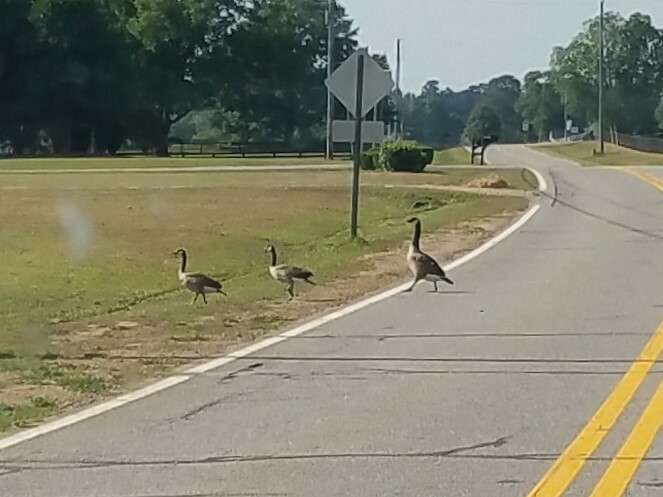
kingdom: Animalia
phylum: Chordata
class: Aves
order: Anseriformes
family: Anatidae
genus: Branta
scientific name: Branta canadensis
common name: Canada goose
